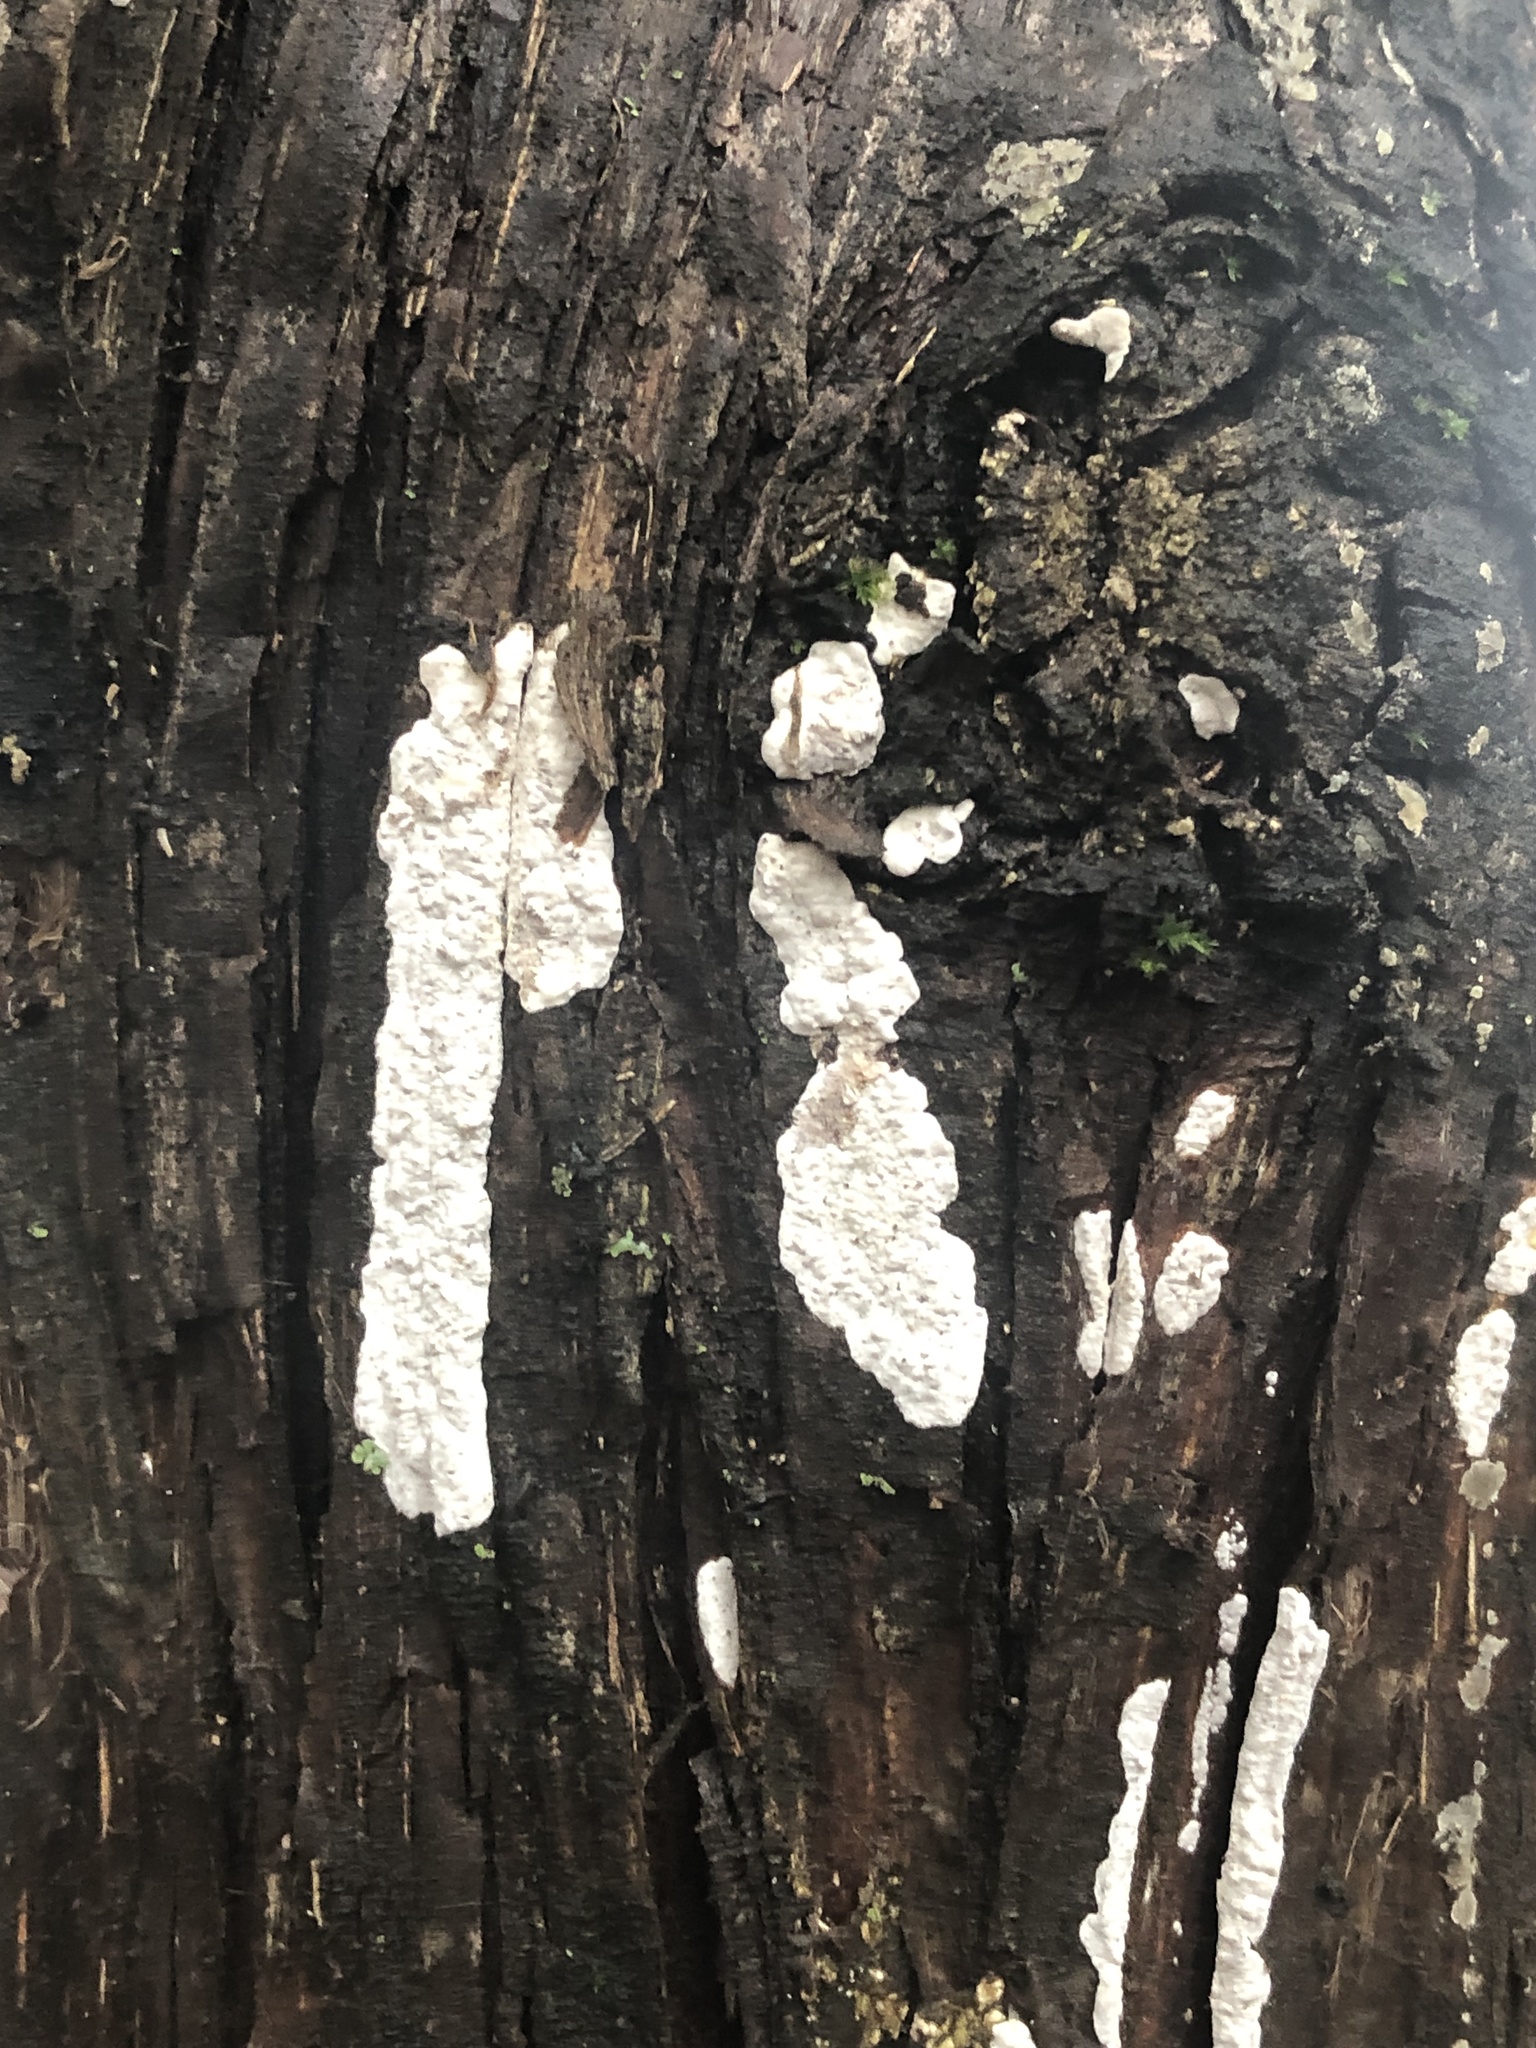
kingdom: Fungi
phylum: Basidiomycota
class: Agaricomycetes
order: Agaricales
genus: Dendrothele
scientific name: Dendrothele nivosa
